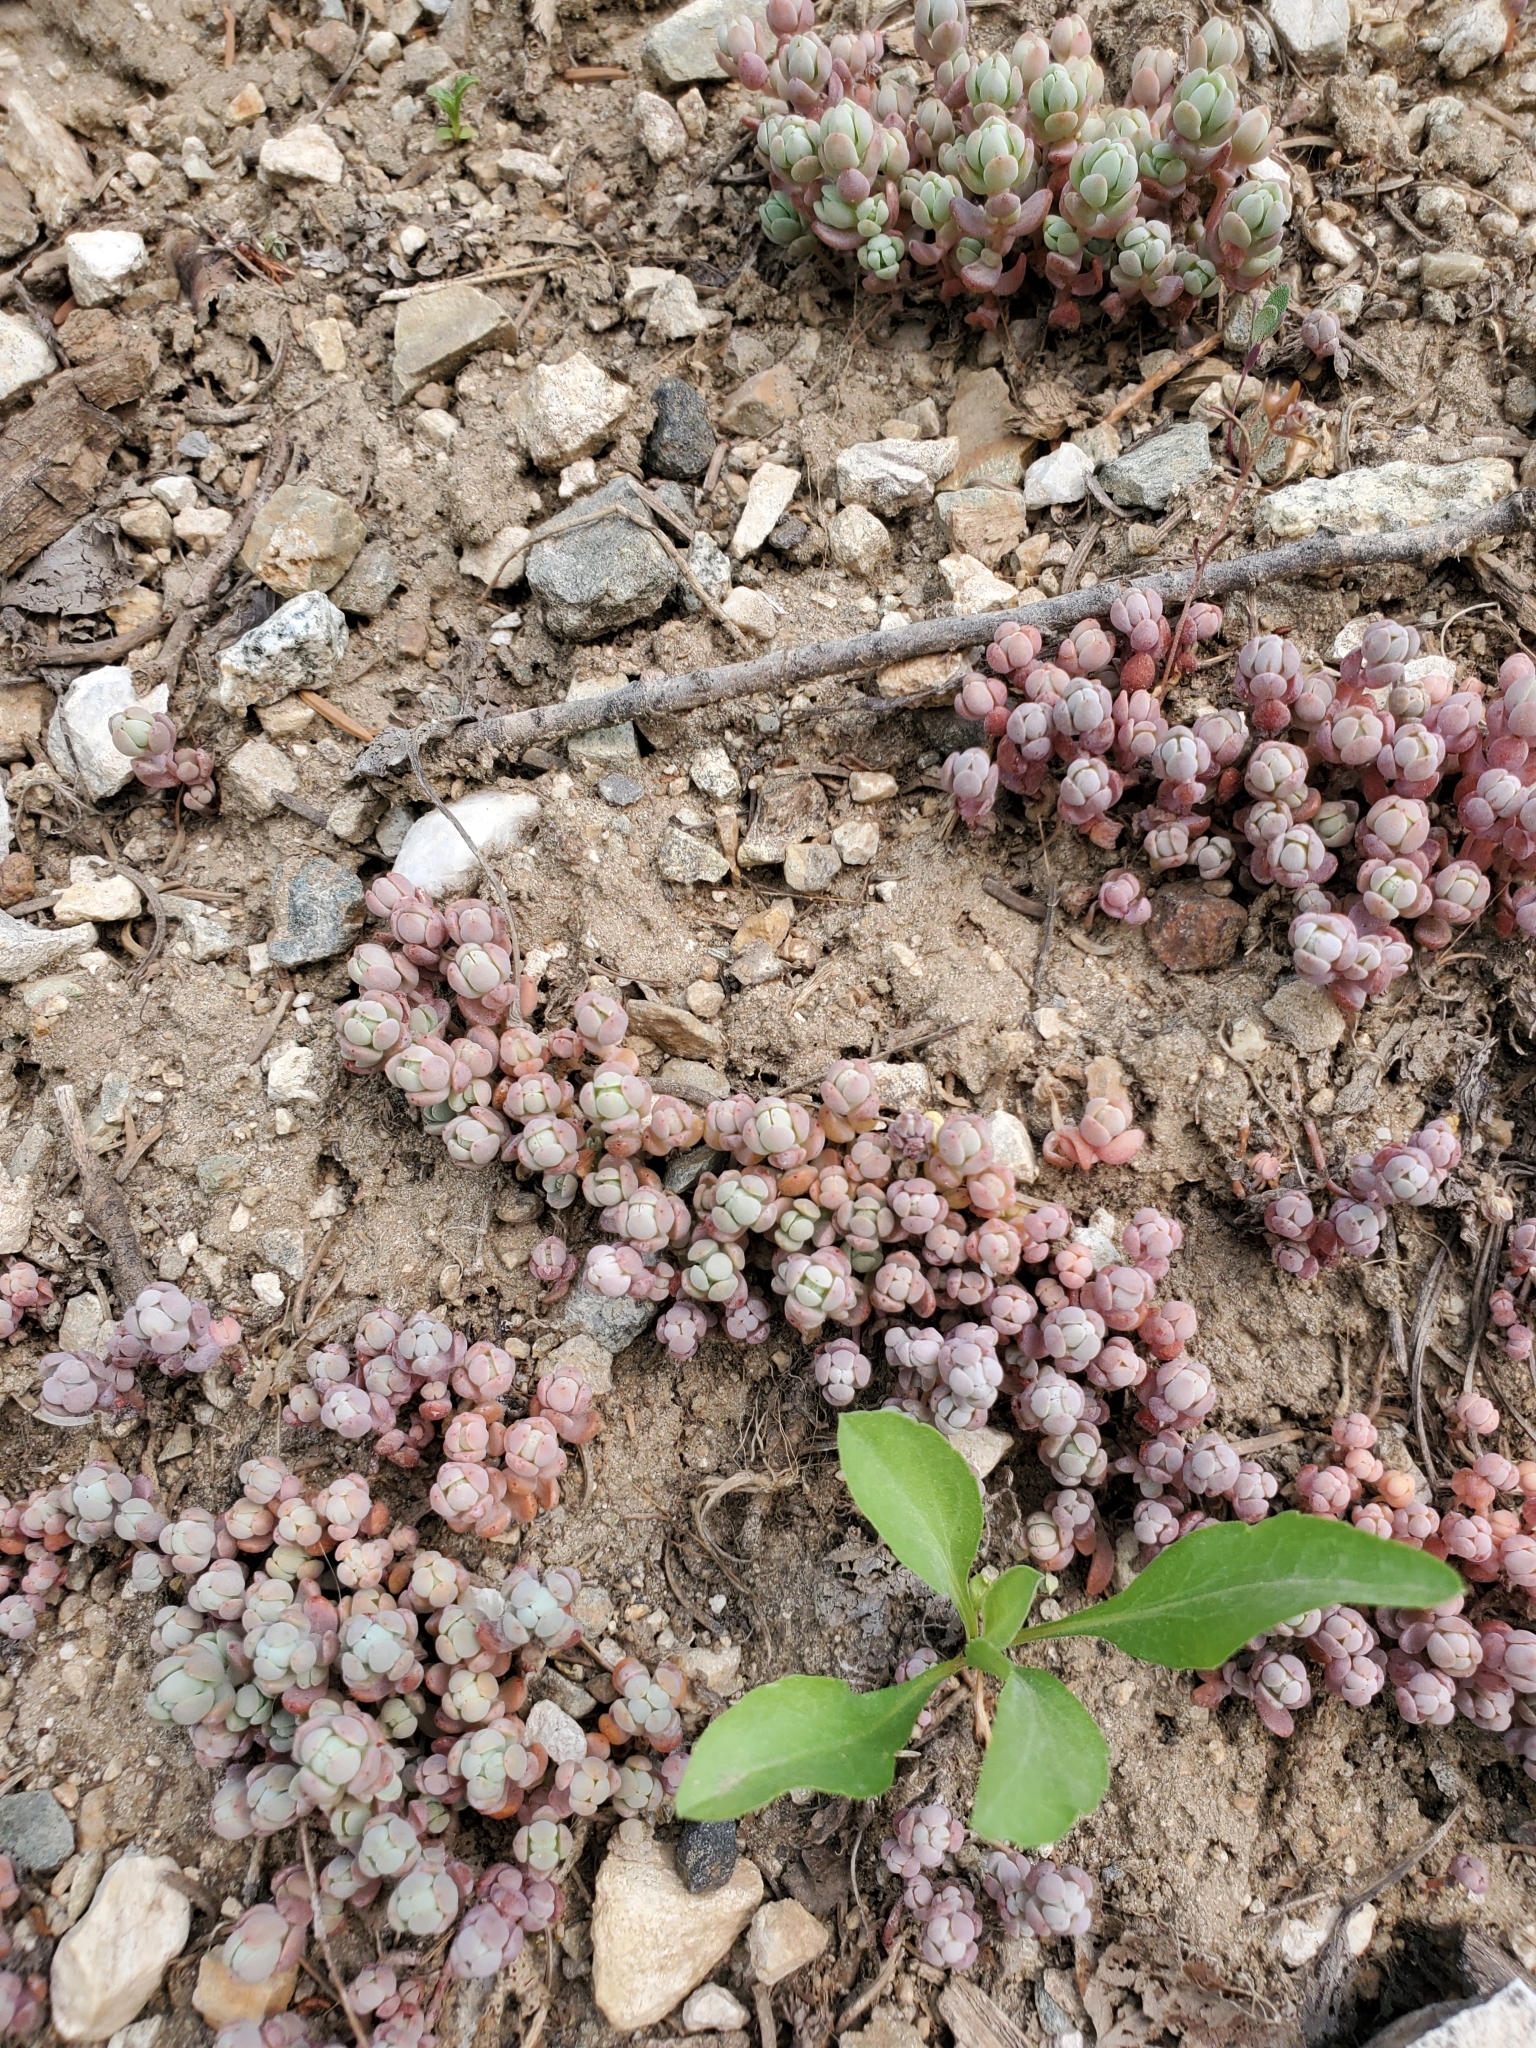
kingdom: Plantae
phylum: Tracheophyta
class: Magnoliopsida
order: Saxifragales
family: Crassulaceae
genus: Sedum
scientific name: Sedum debile
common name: Weak-stem stonecrop
